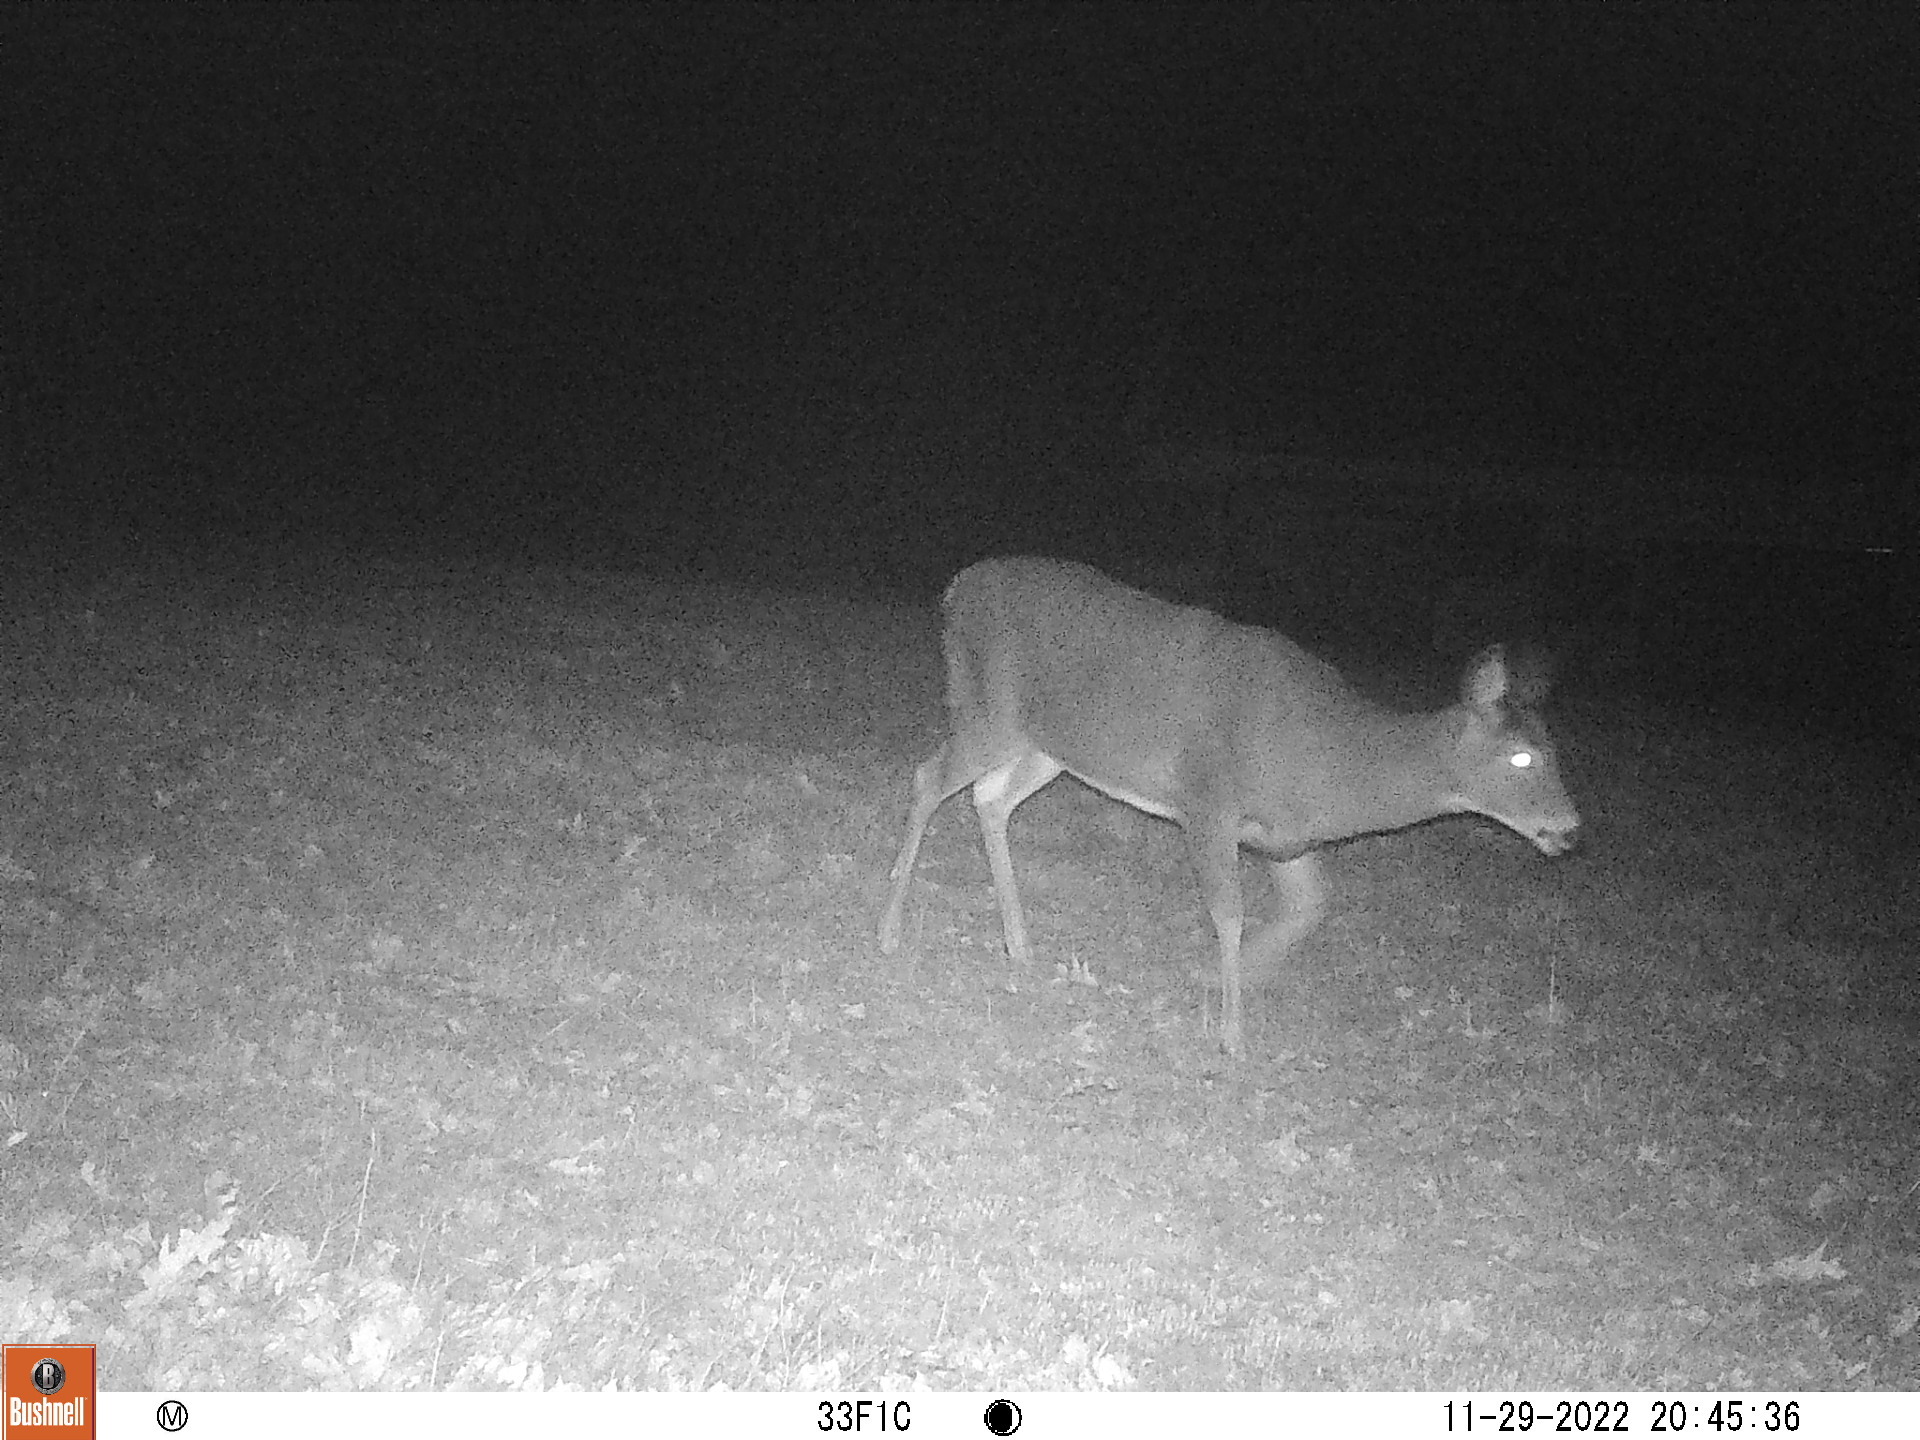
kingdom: Animalia
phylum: Chordata
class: Mammalia
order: Artiodactyla
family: Cervidae
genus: Odocoileus
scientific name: Odocoileus virginianus
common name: White-tailed deer
